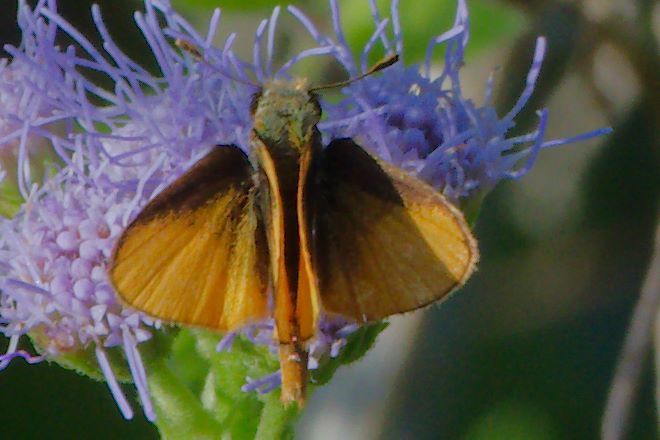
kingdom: Animalia
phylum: Arthropoda
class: Insecta
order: Lepidoptera
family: Hesperiidae
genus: Copaeodes
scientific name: Copaeodes minima
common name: Southern skipperling
